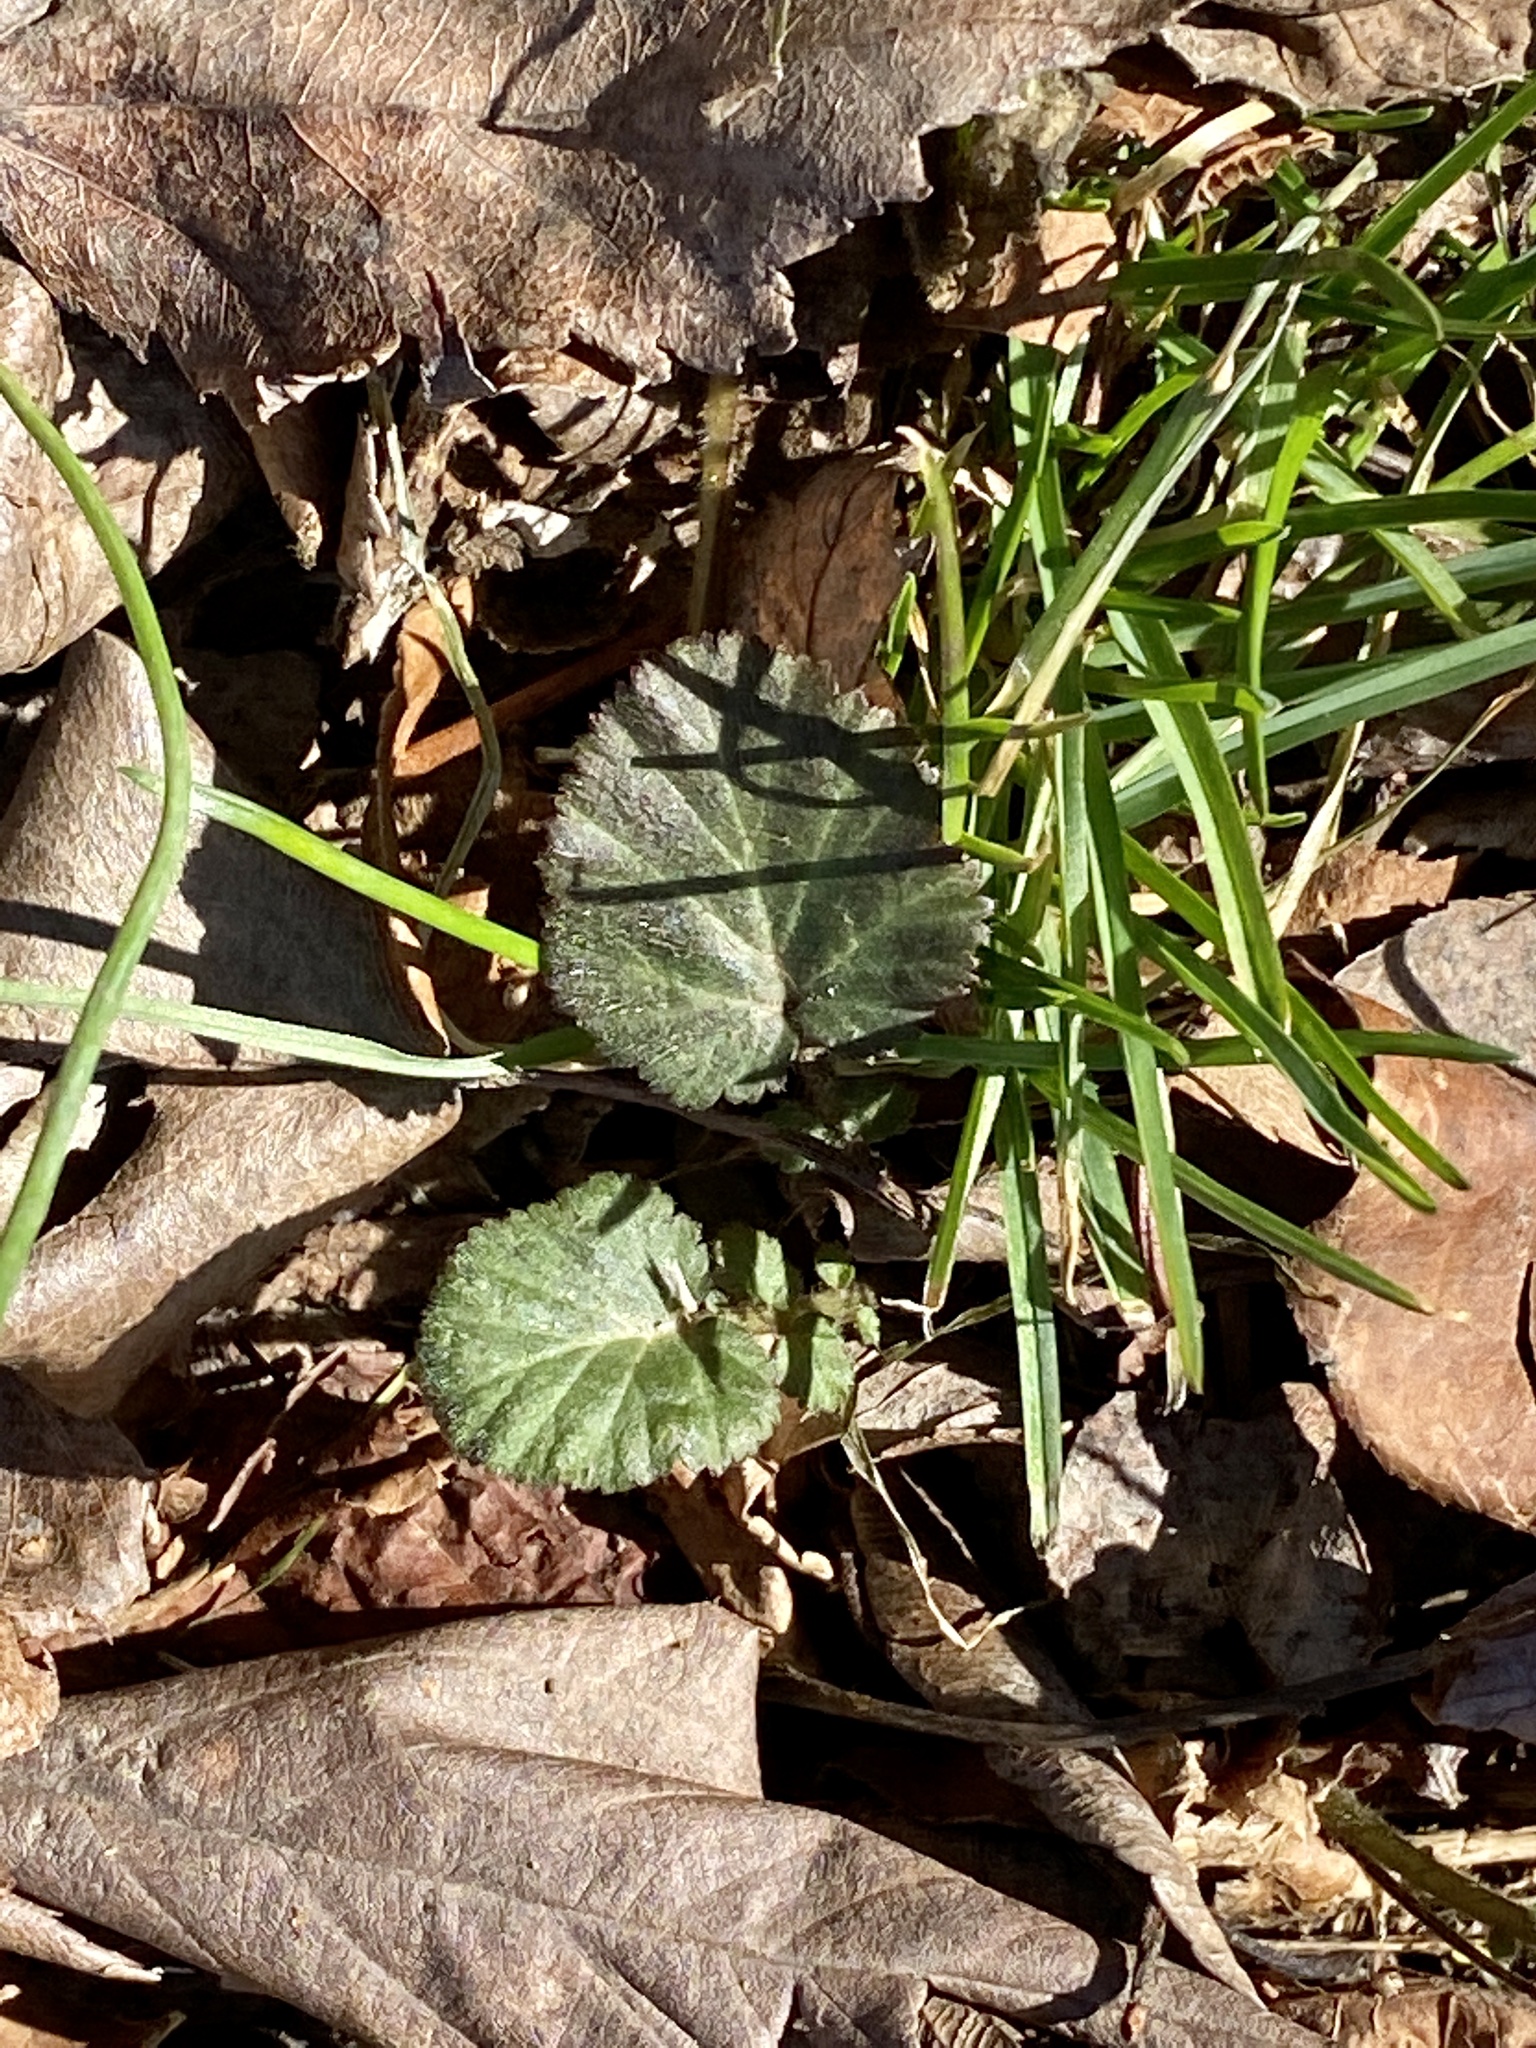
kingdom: Plantae
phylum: Tracheophyta
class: Magnoliopsida
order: Rosales
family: Rosaceae
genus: Geum
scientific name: Geum canadense
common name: White avens
